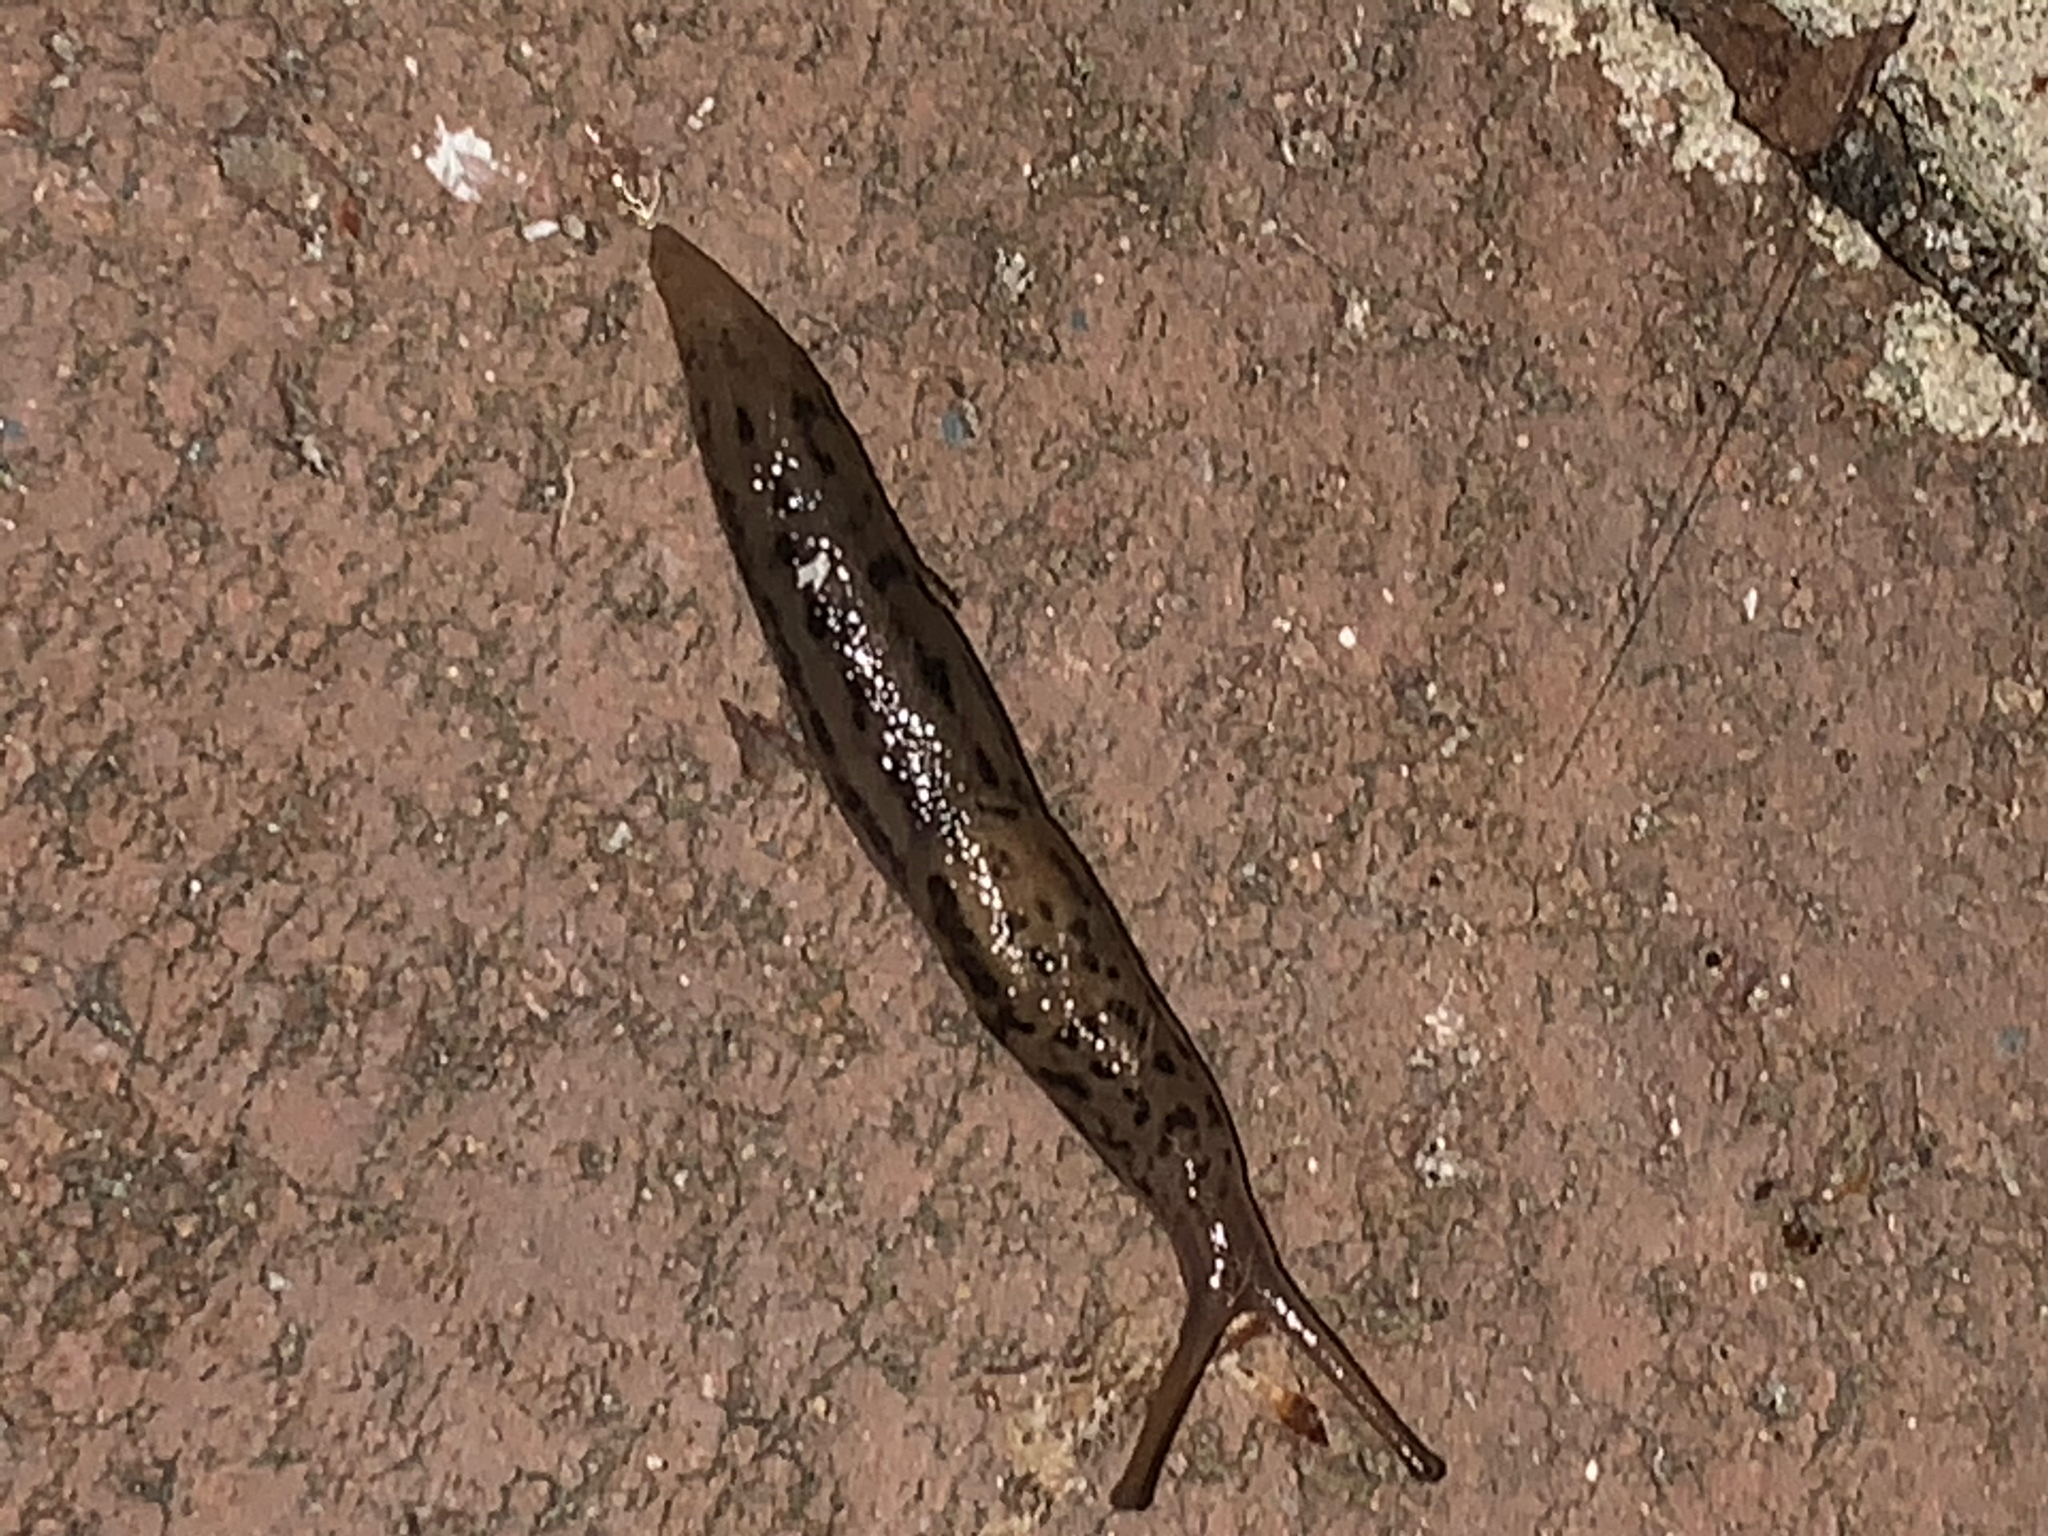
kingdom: Animalia
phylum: Mollusca
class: Gastropoda
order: Stylommatophora
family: Limacidae
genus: Limax
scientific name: Limax maximus
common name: Great grey slug
